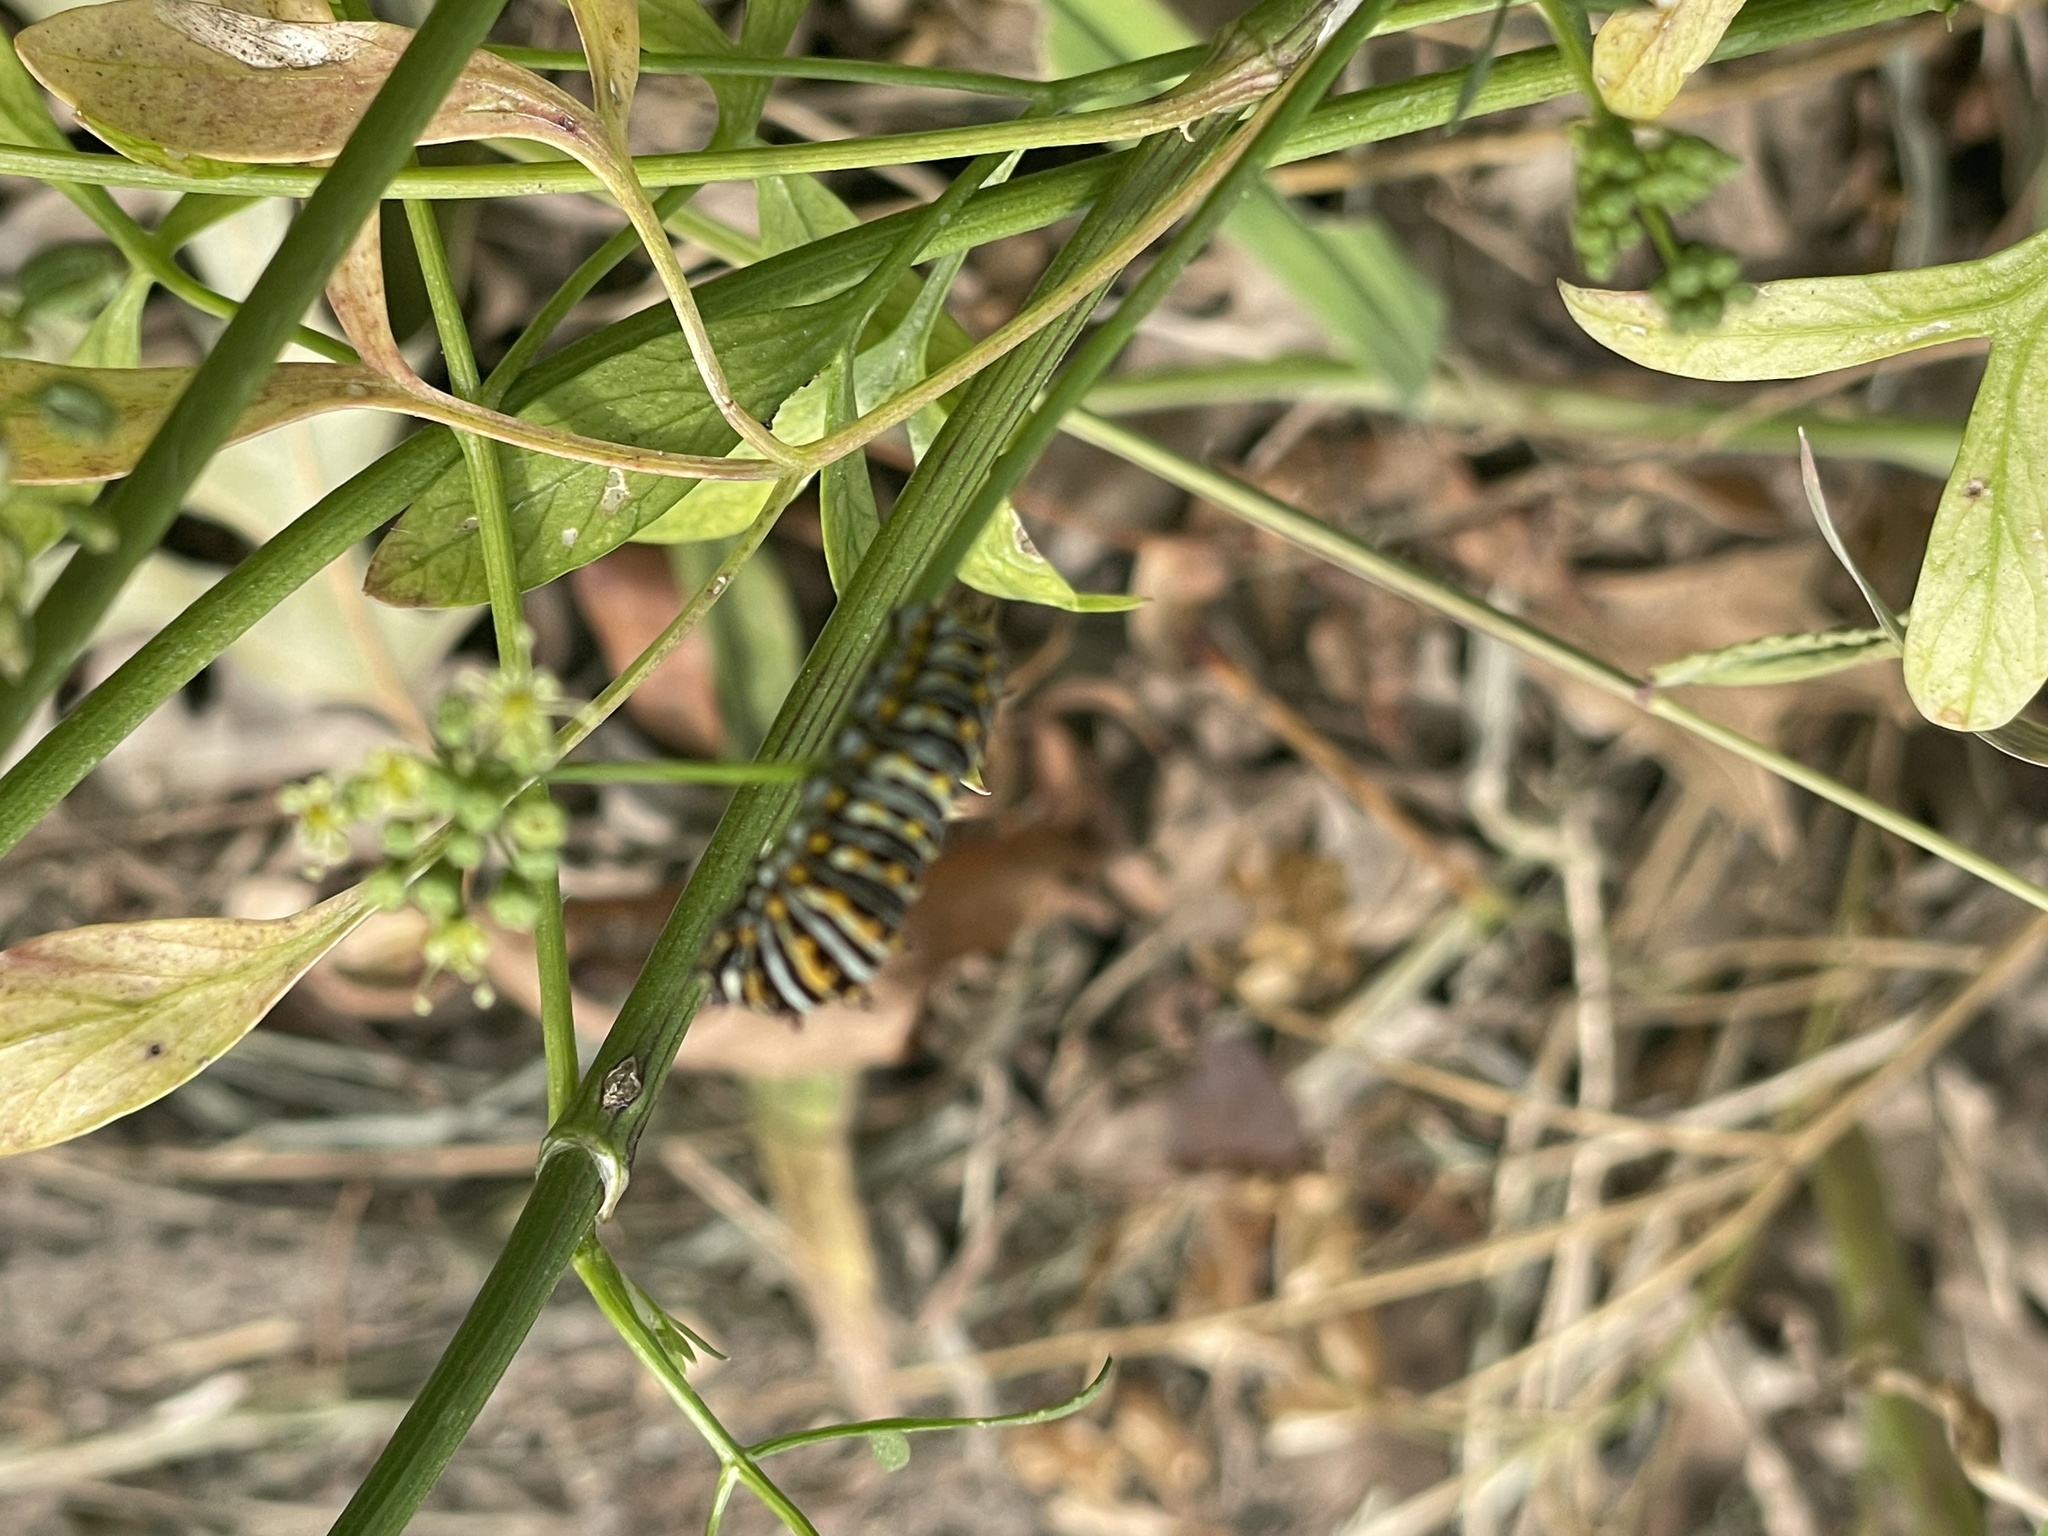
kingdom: Animalia
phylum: Arthropoda
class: Insecta
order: Lepidoptera
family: Papilionidae
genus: Papilio
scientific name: Papilio polyxenes
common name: Black swallowtail
